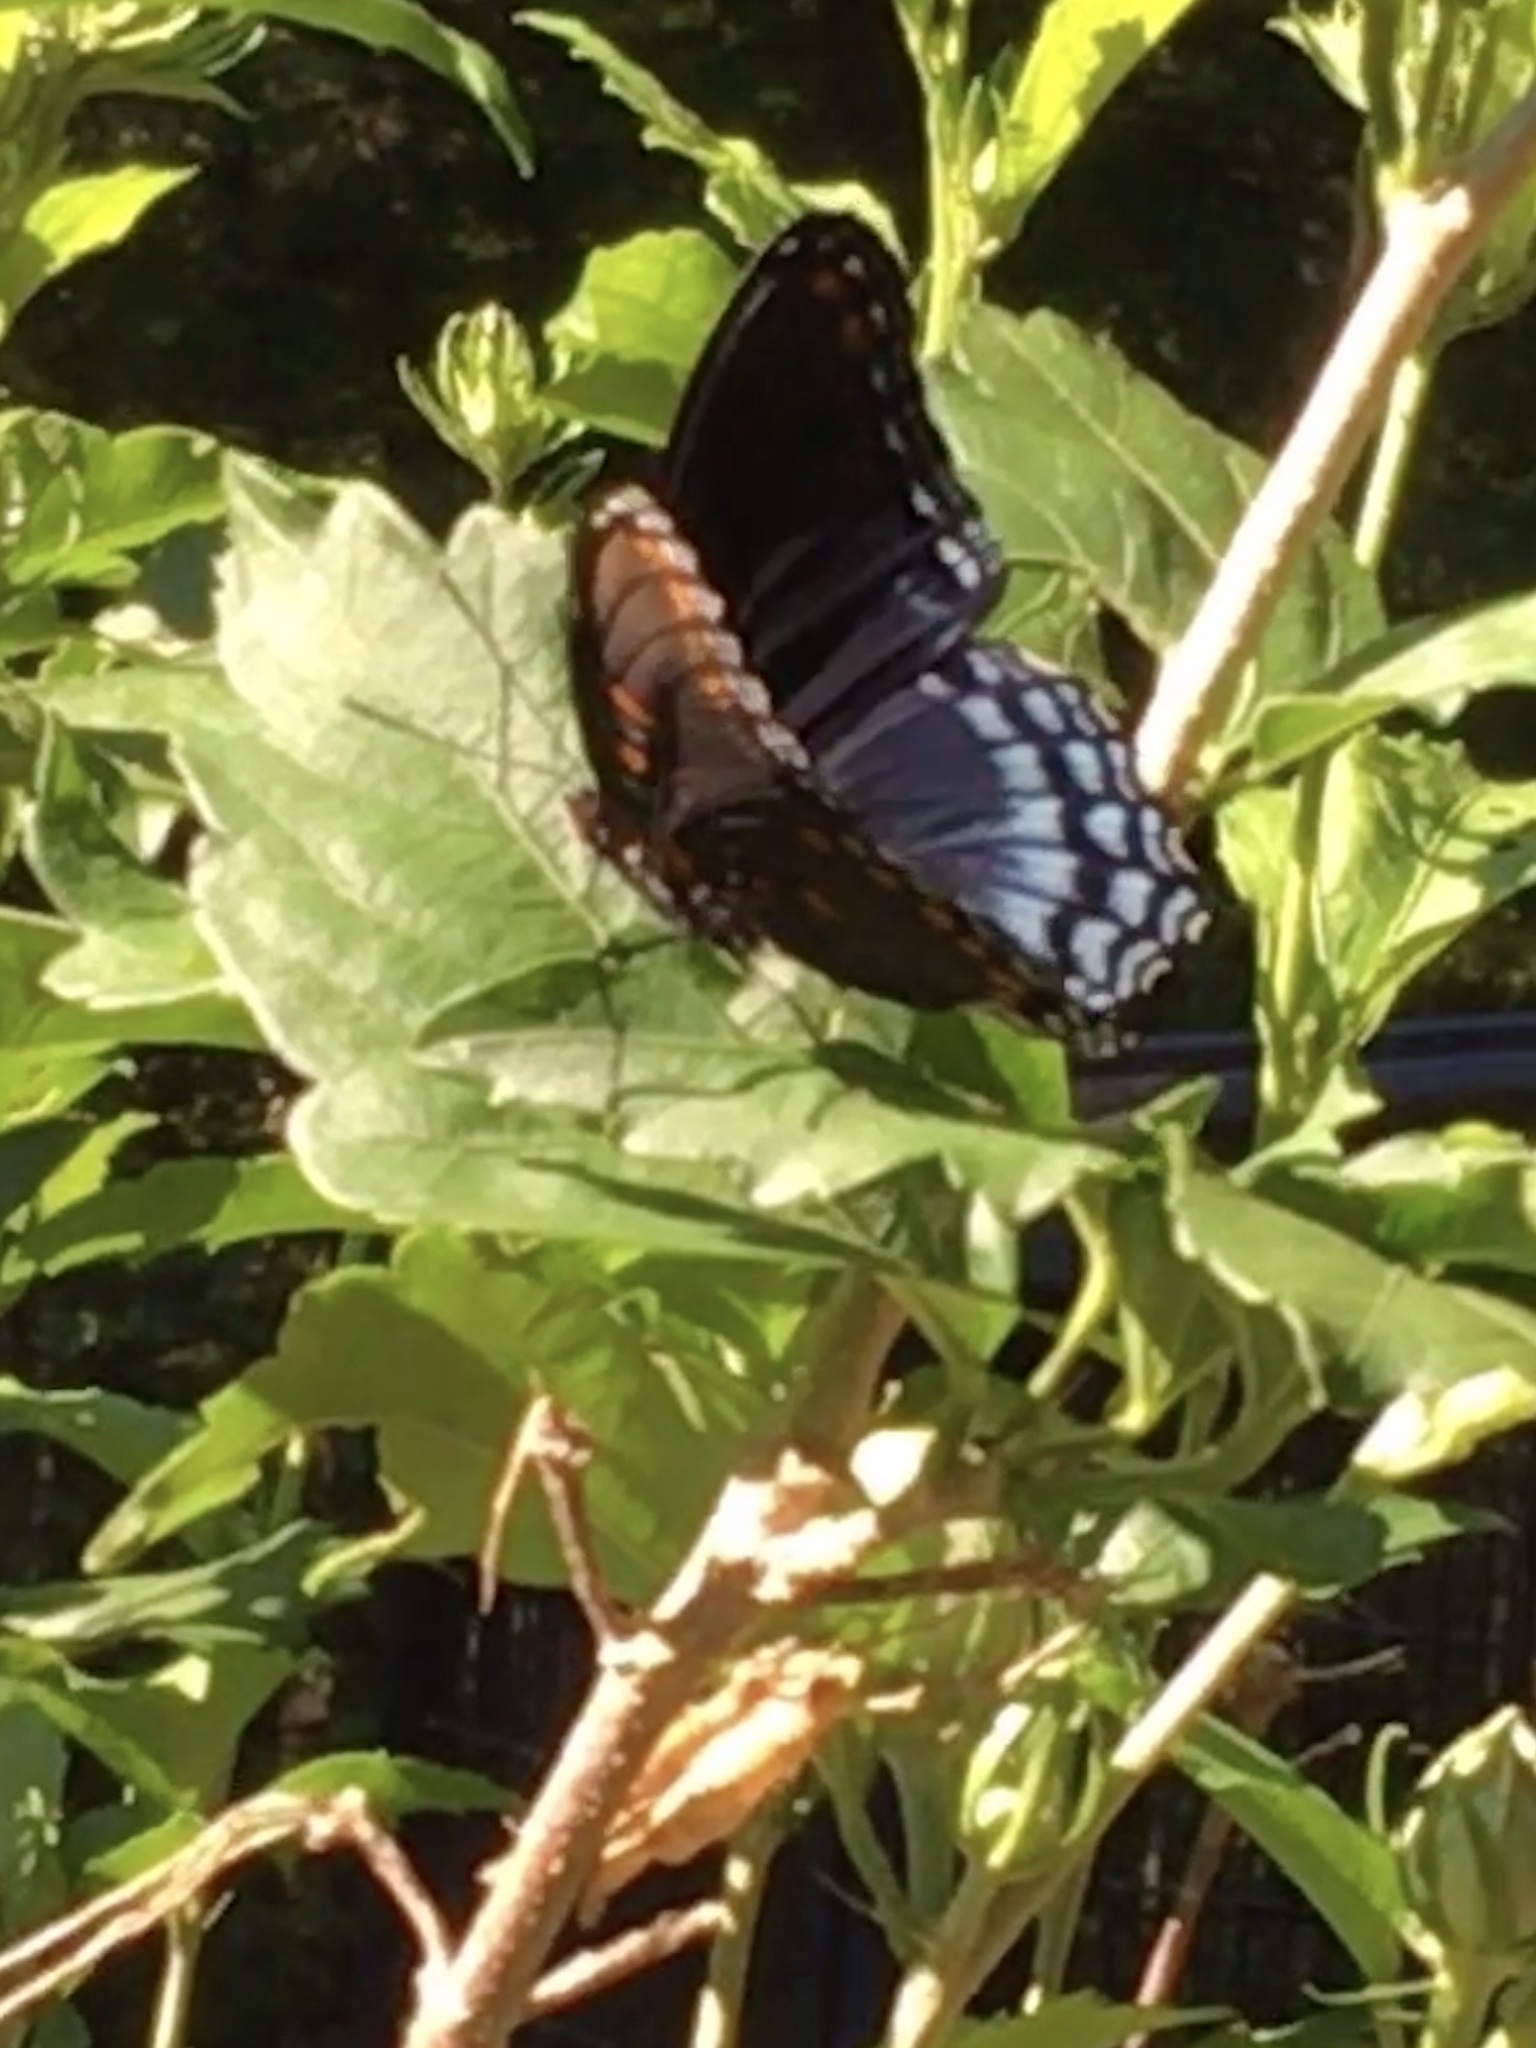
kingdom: Animalia
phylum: Arthropoda
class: Insecta
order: Lepidoptera
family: Nymphalidae
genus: Limenitis
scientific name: Limenitis astyanax
